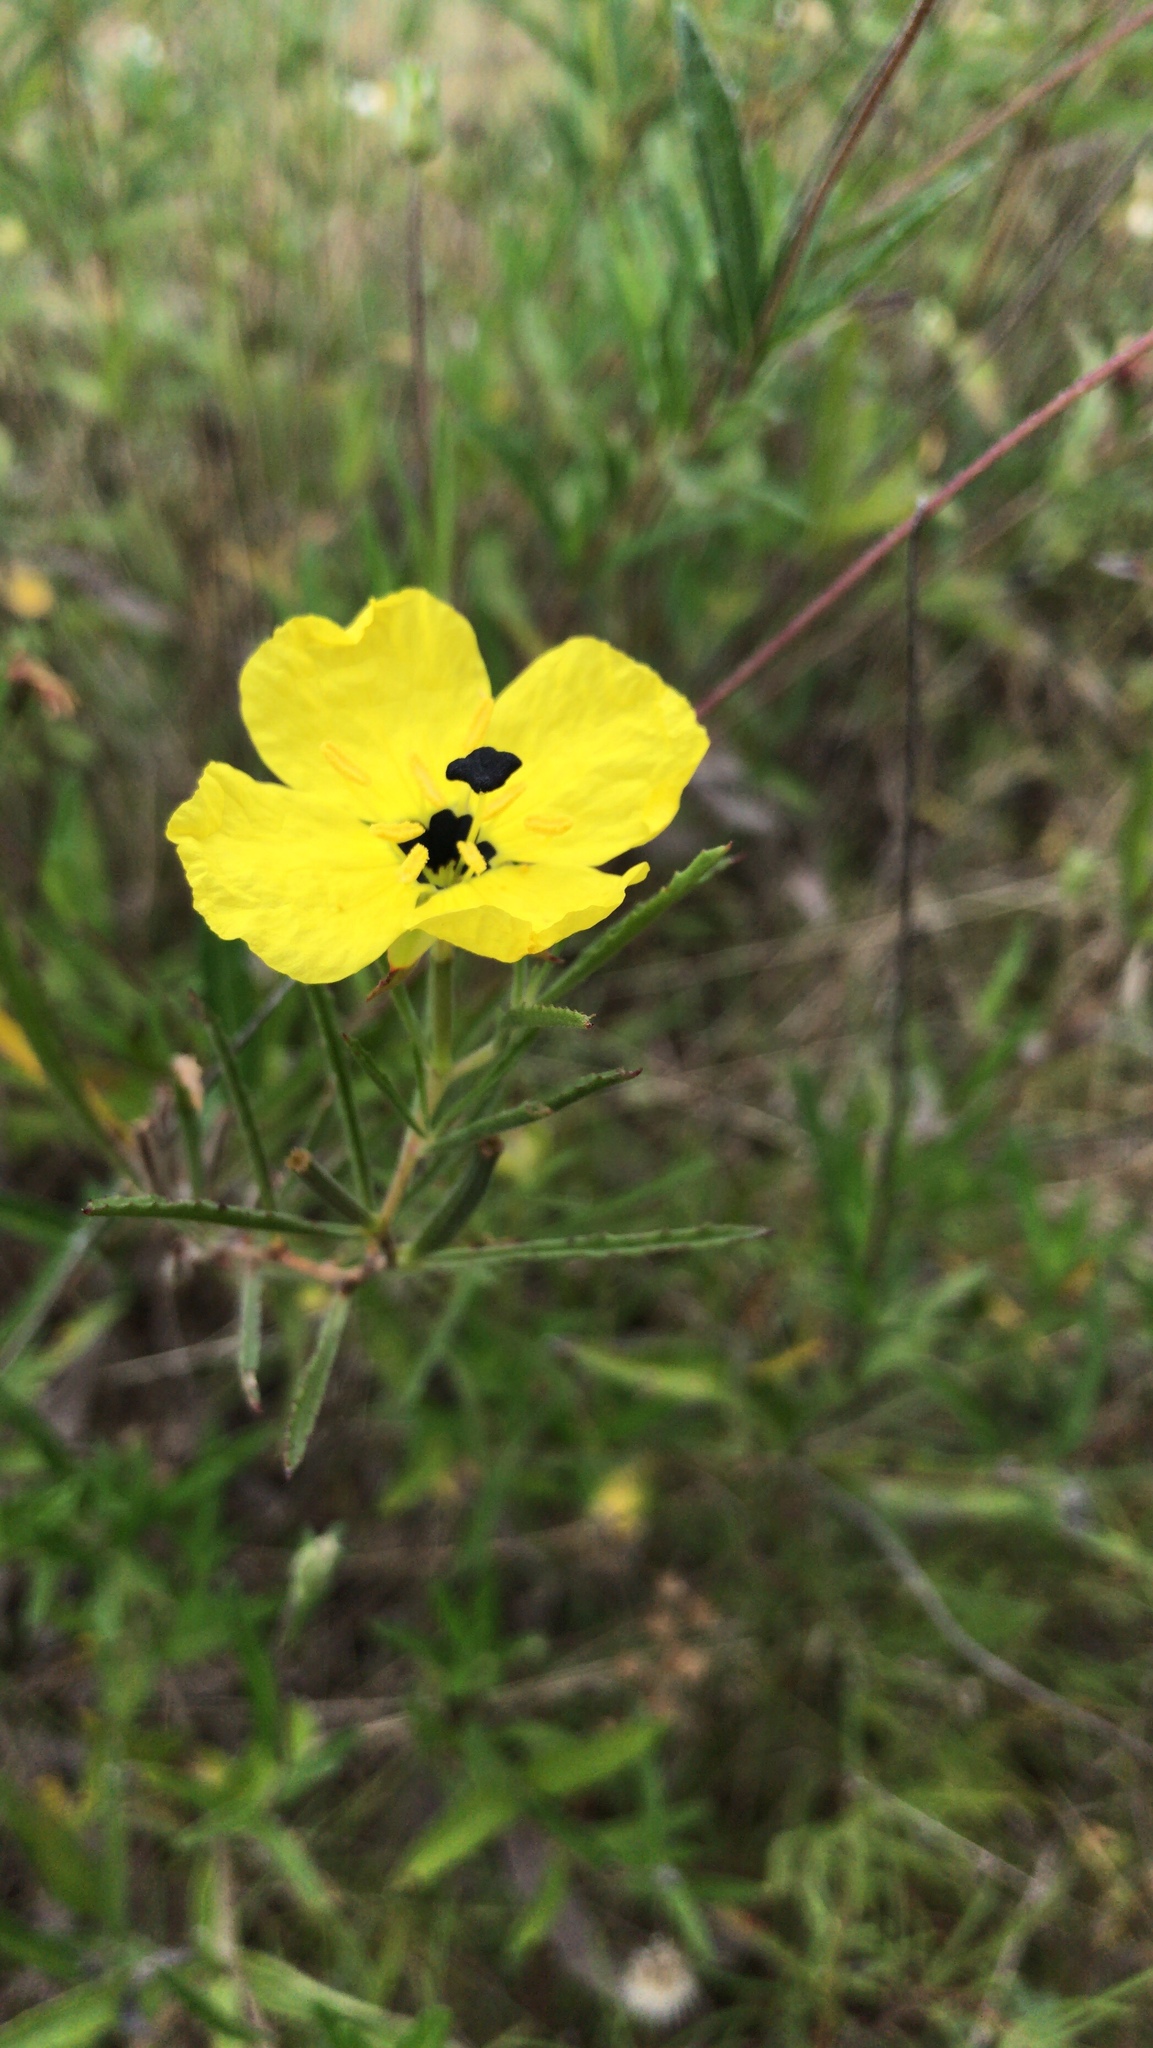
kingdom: Plantae
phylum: Tracheophyta
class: Magnoliopsida
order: Myrtales
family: Onagraceae
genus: Oenothera
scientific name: Oenothera
